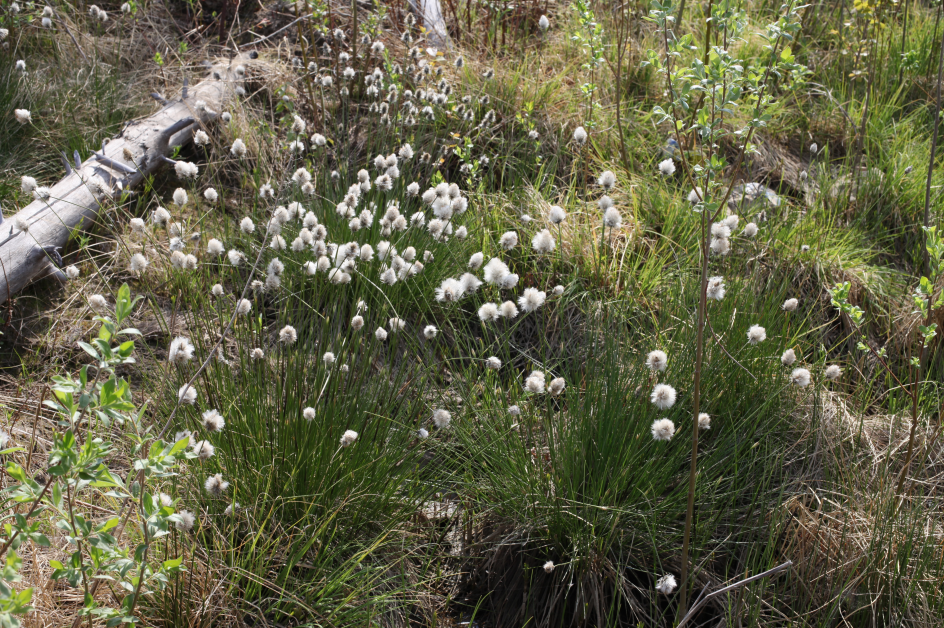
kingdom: Plantae
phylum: Tracheophyta
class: Liliopsida
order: Poales
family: Cyperaceae
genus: Eriophorum
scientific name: Eriophorum vaginatum
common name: Hare's-tail cottongrass
